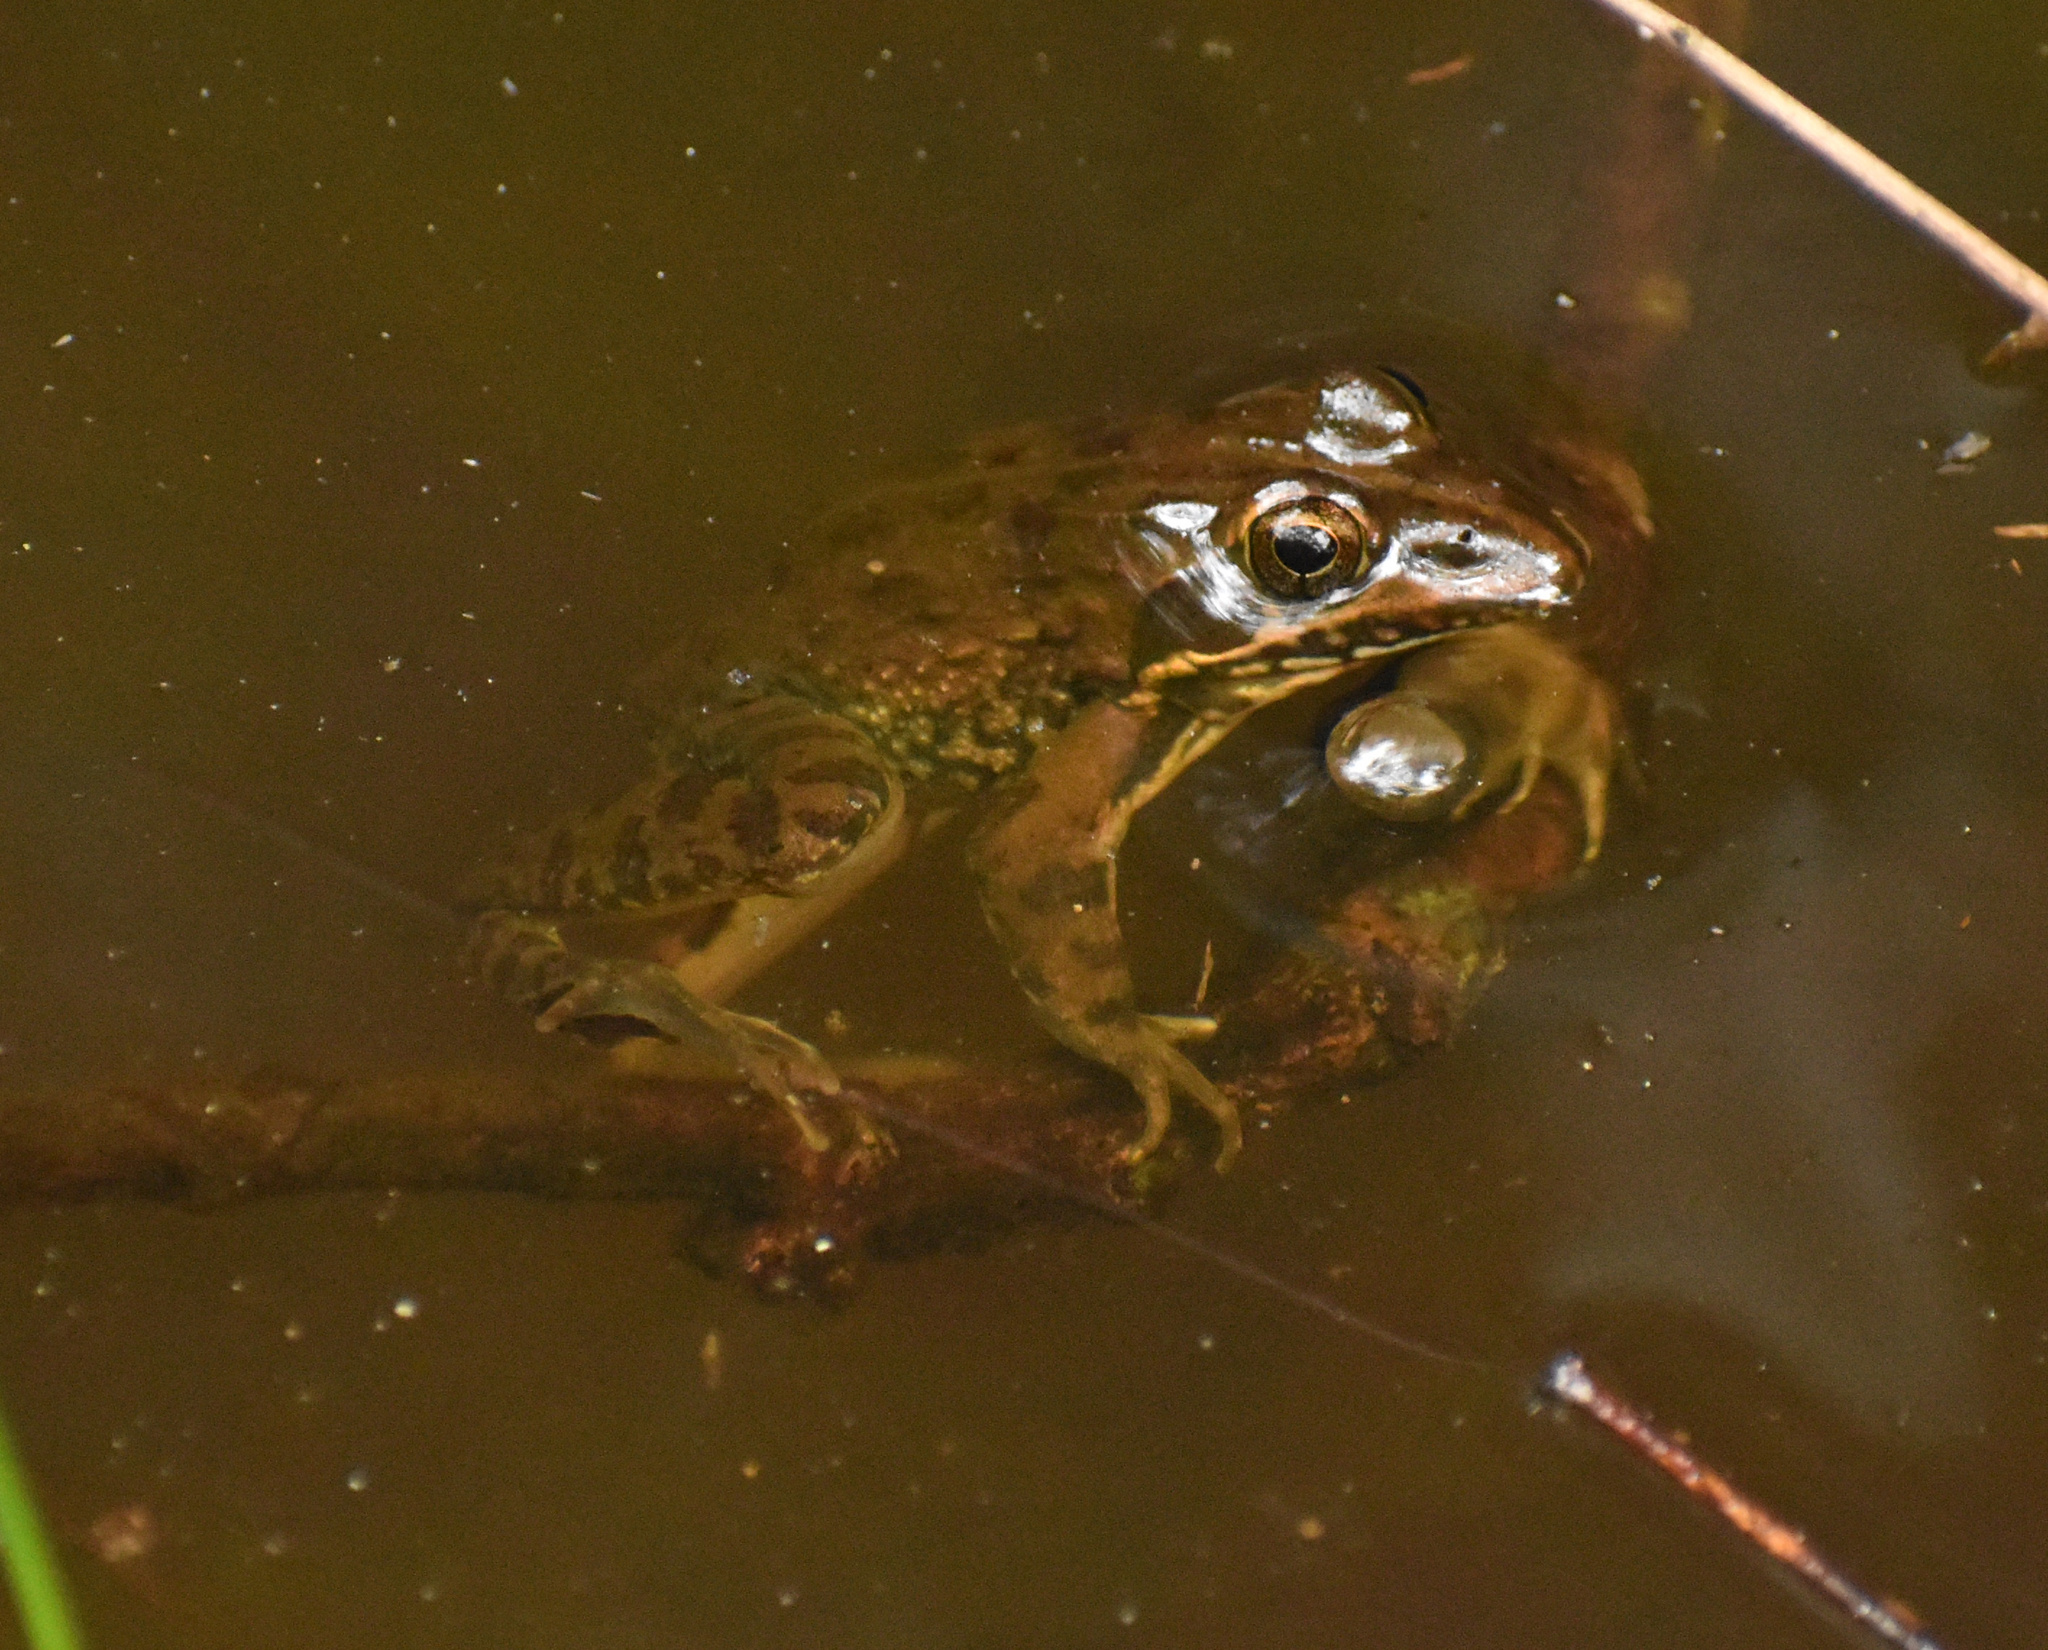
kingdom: Animalia
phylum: Chordata
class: Amphibia
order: Anura
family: Pyxicephalidae
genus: Amietia
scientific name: Amietia delalandii
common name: Delalande's river frog
